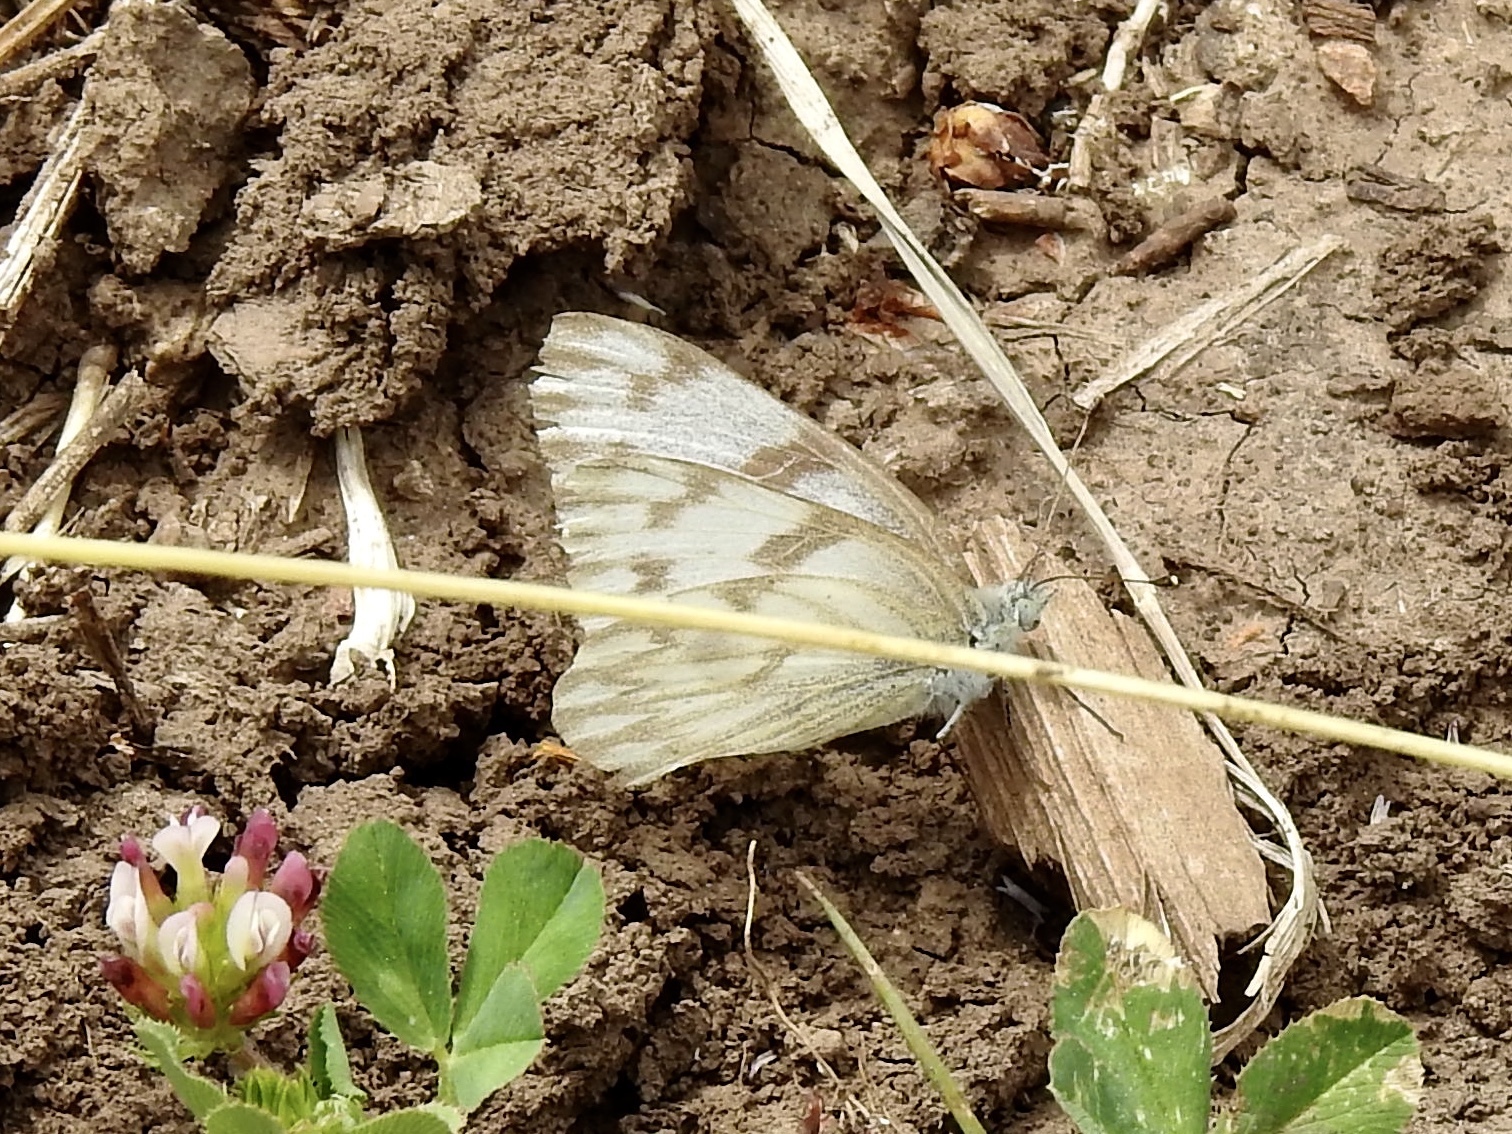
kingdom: Animalia
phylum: Arthropoda
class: Insecta
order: Lepidoptera
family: Pieridae
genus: Pontia
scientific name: Pontia protodice
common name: Checkered white
